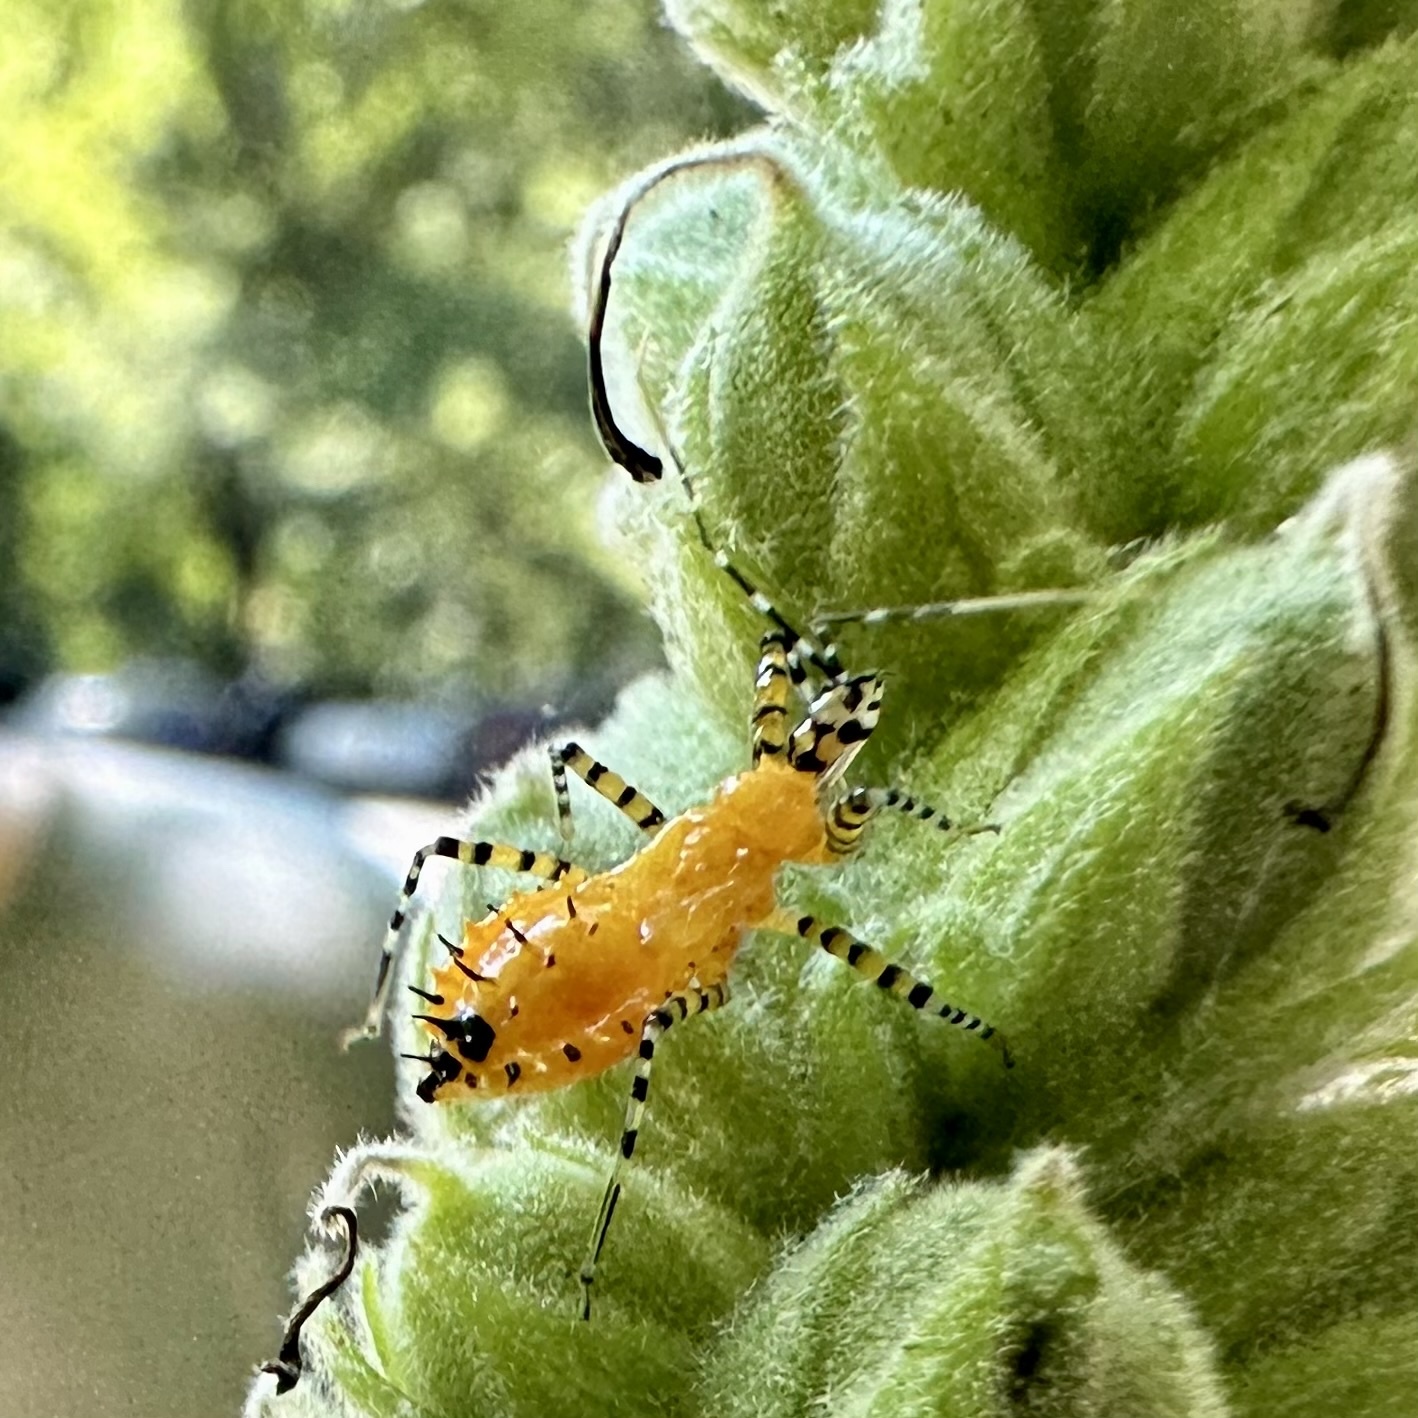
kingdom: Animalia
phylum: Arthropoda
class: Insecta
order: Hemiptera
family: Reduviidae
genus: Pselliopus
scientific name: Pselliopus barberi
